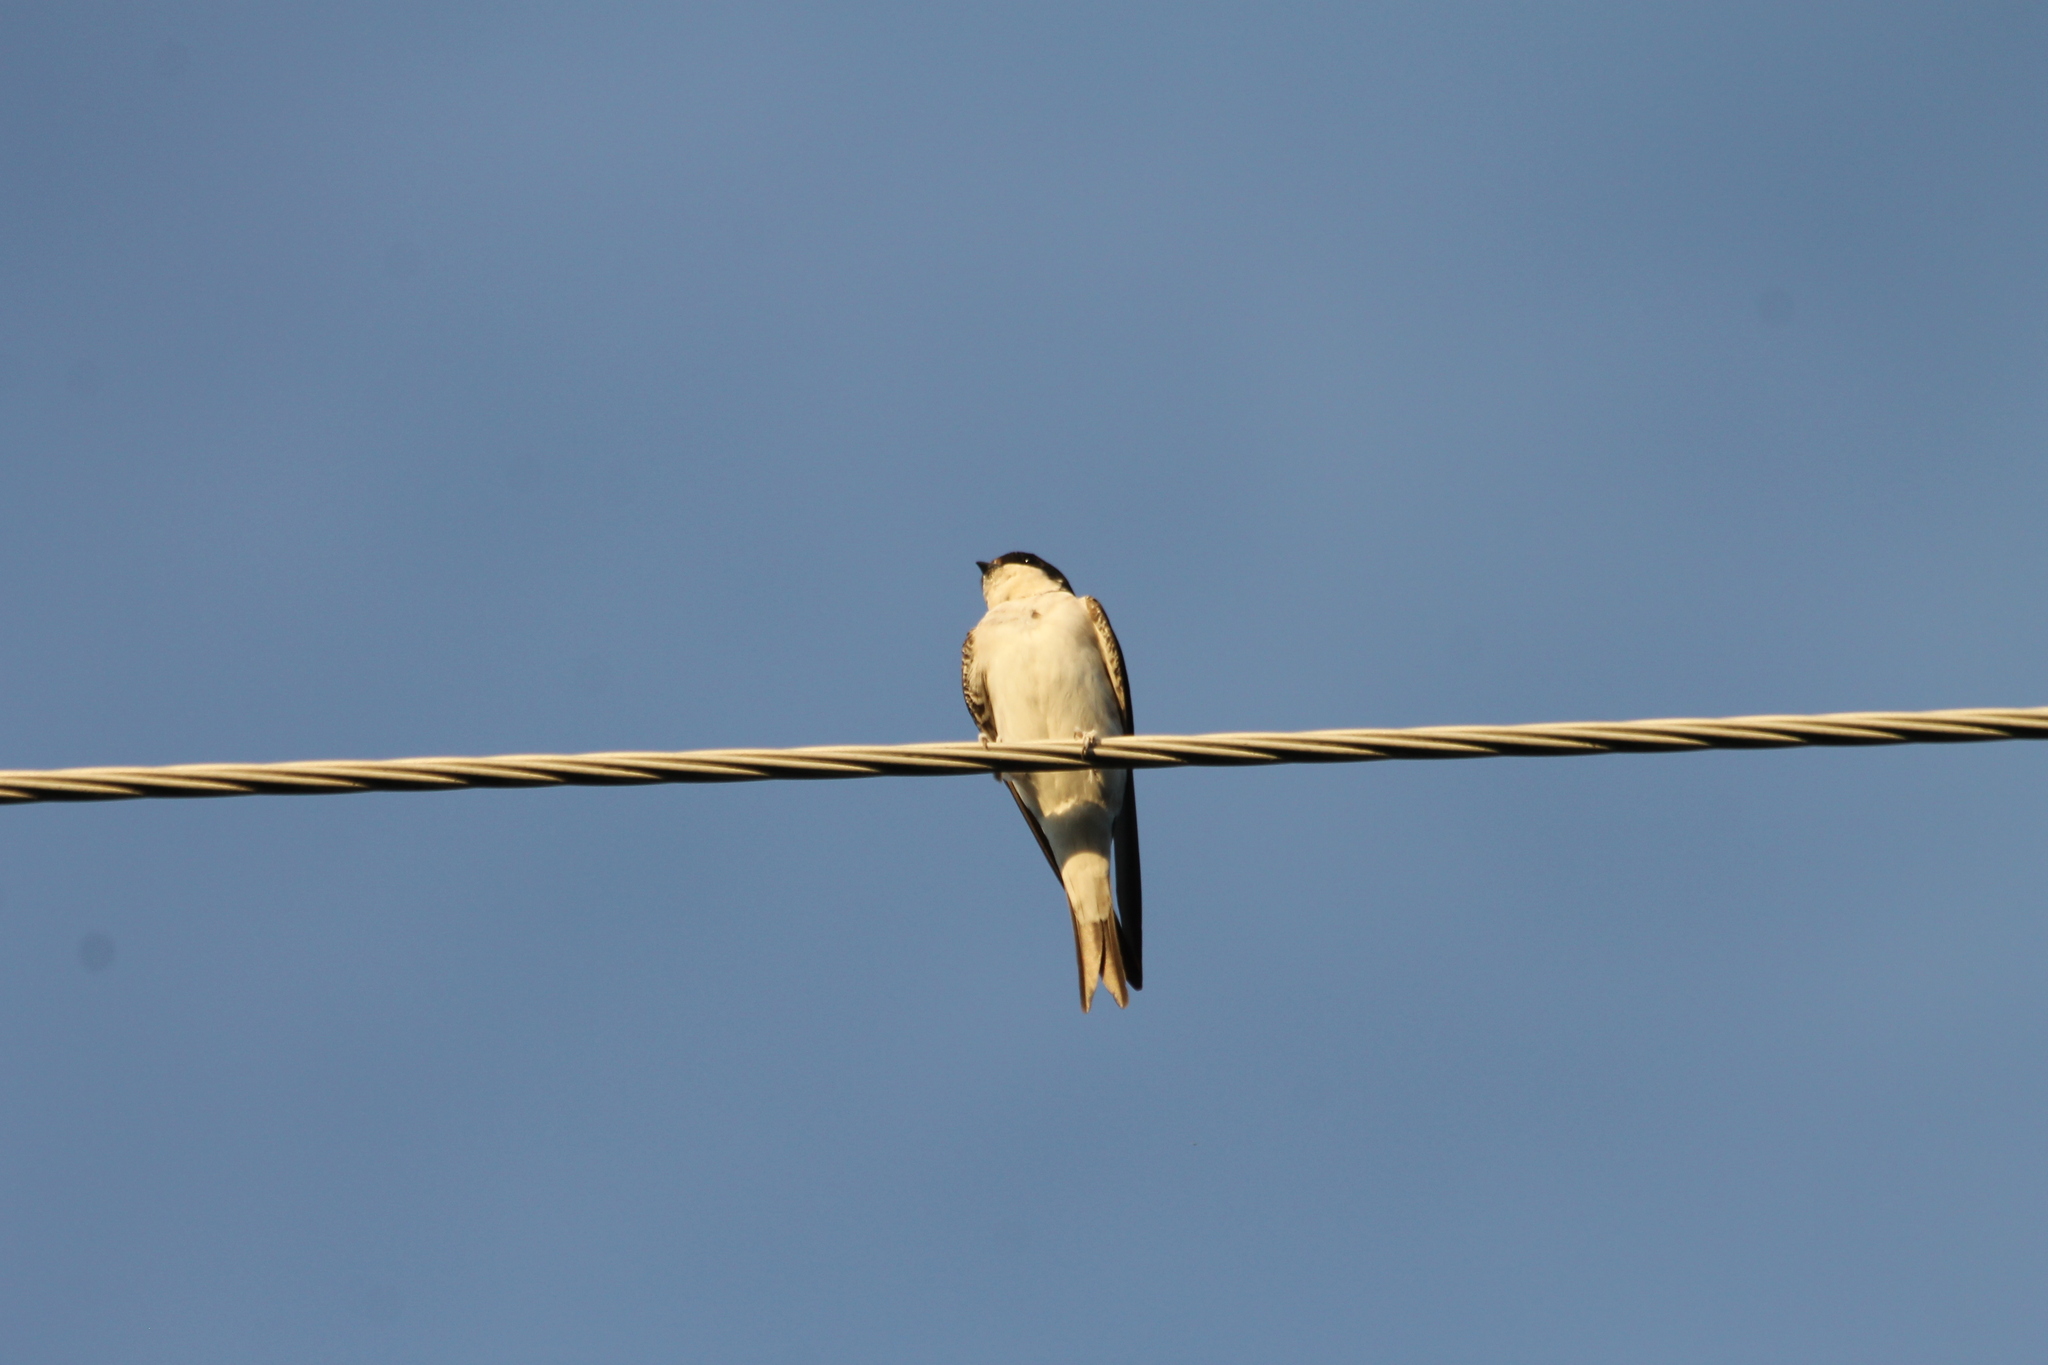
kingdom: Animalia
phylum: Chordata
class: Aves
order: Passeriformes
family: Hirundinidae
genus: Delichon
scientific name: Delichon urbicum
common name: Common house martin
